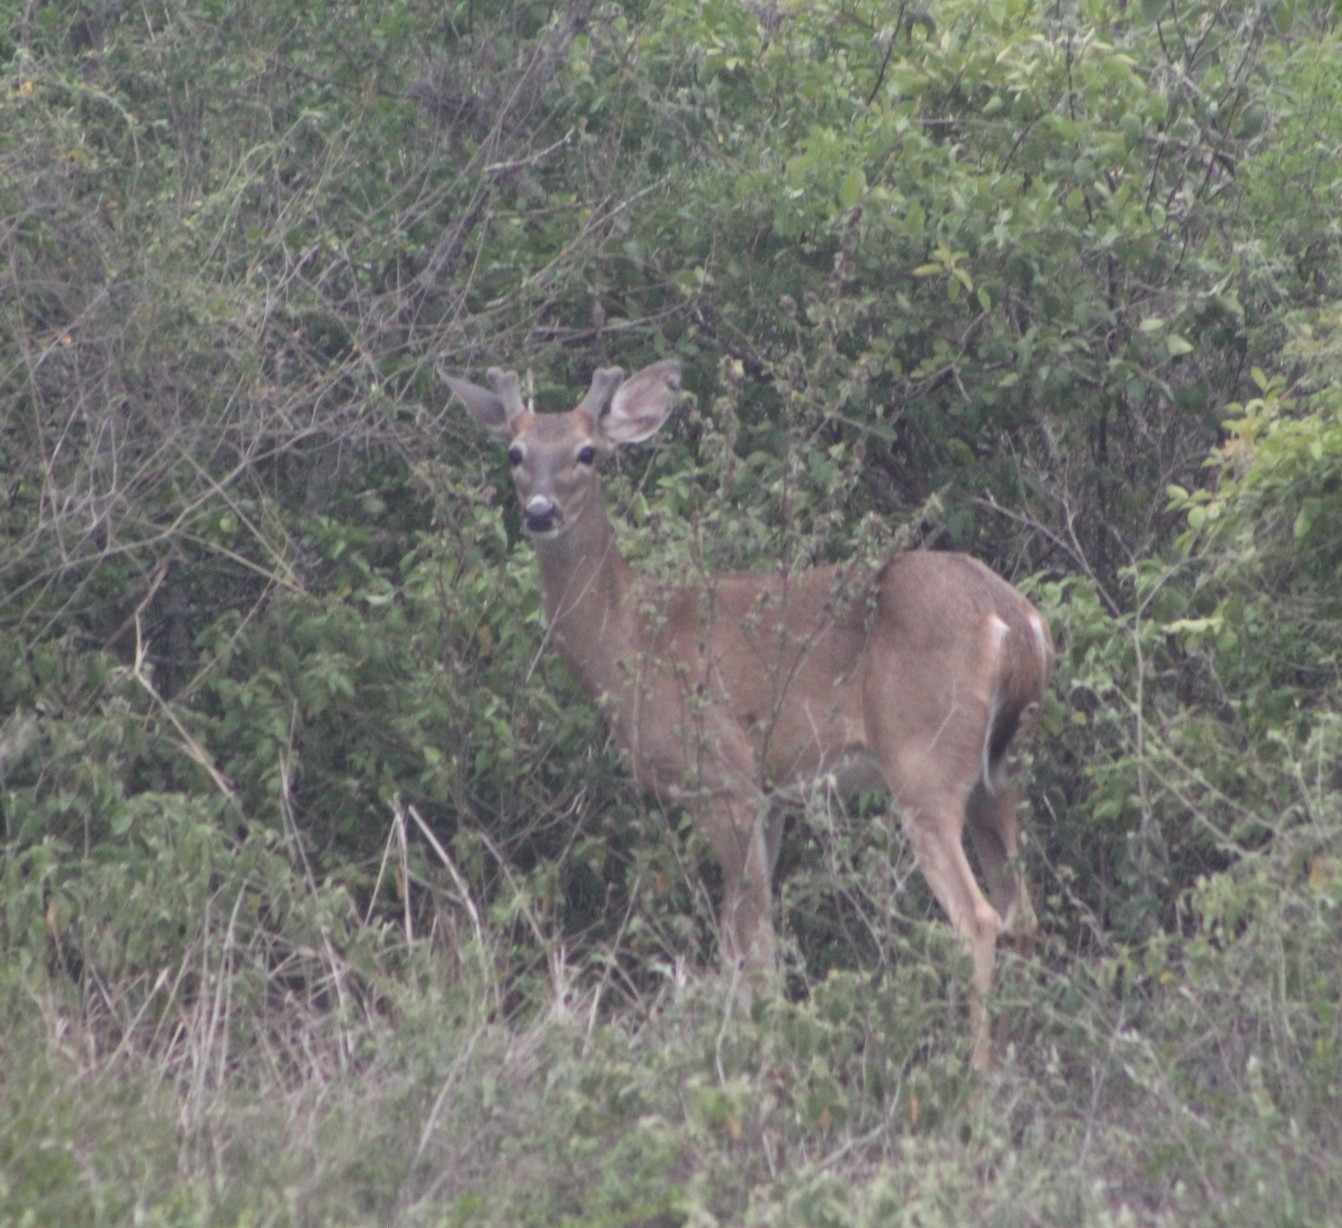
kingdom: Animalia
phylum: Chordata
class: Mammalia
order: Artiodactyla
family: Cervidae
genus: Odocoileus
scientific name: Odocoileus virginianus
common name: White-tailed deer
